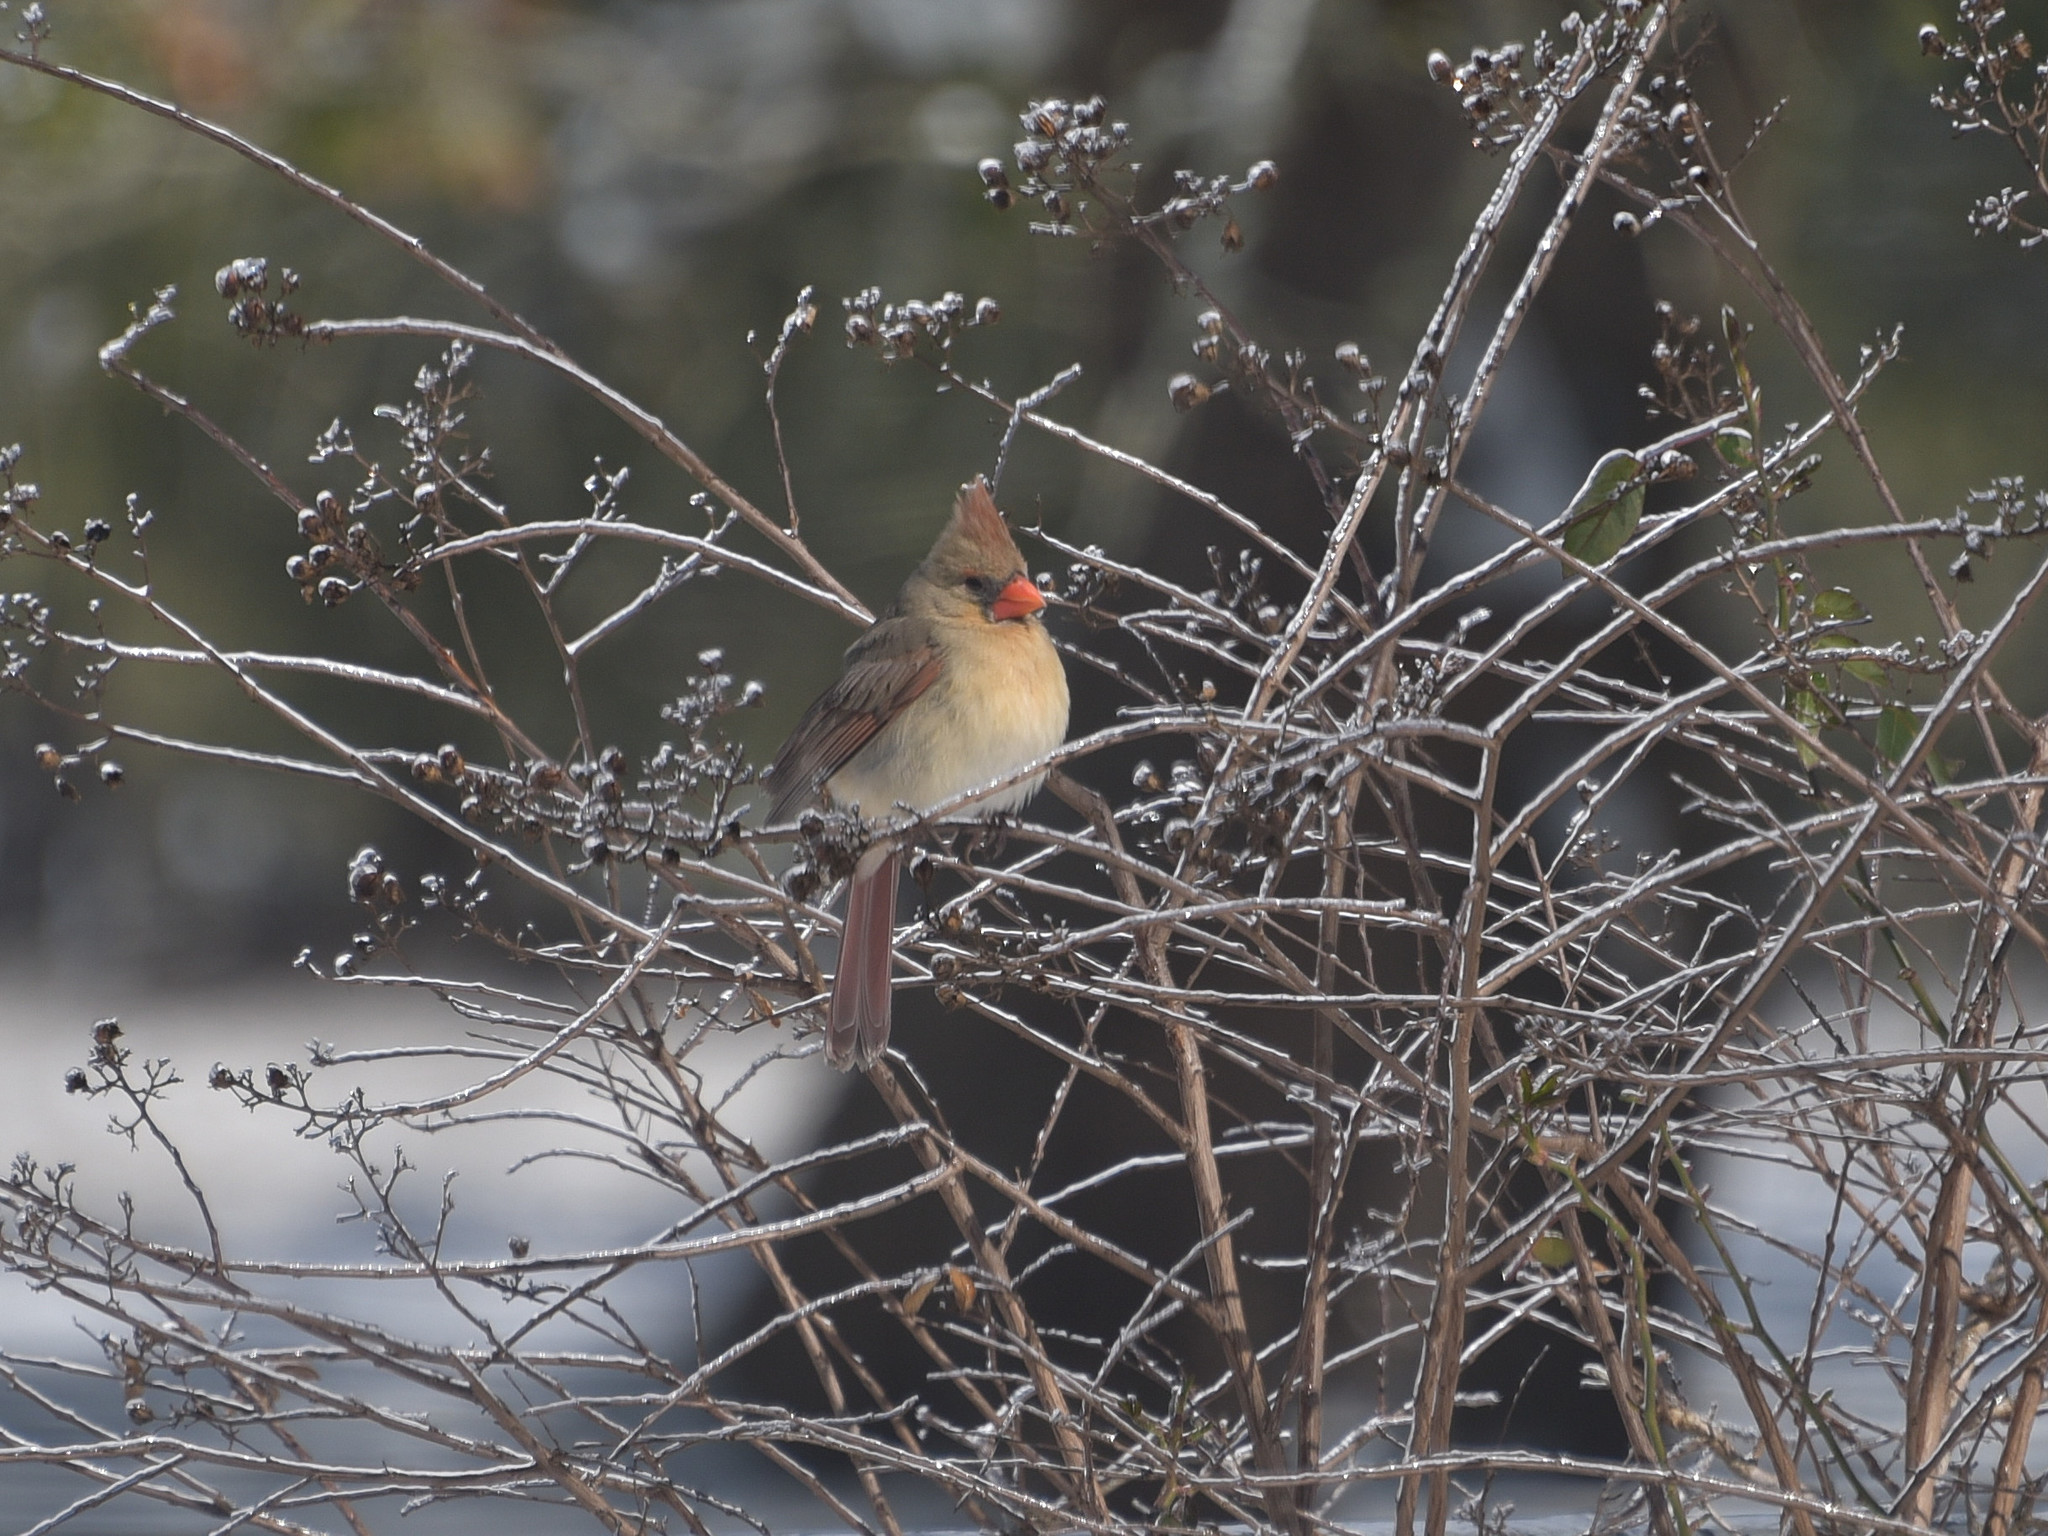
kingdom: Animalia
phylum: Chordata
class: Aves
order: Passeriformes
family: Cardinalidae
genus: Cardinalis
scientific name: Cardinalis cardinalis
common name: Northern cardinal
